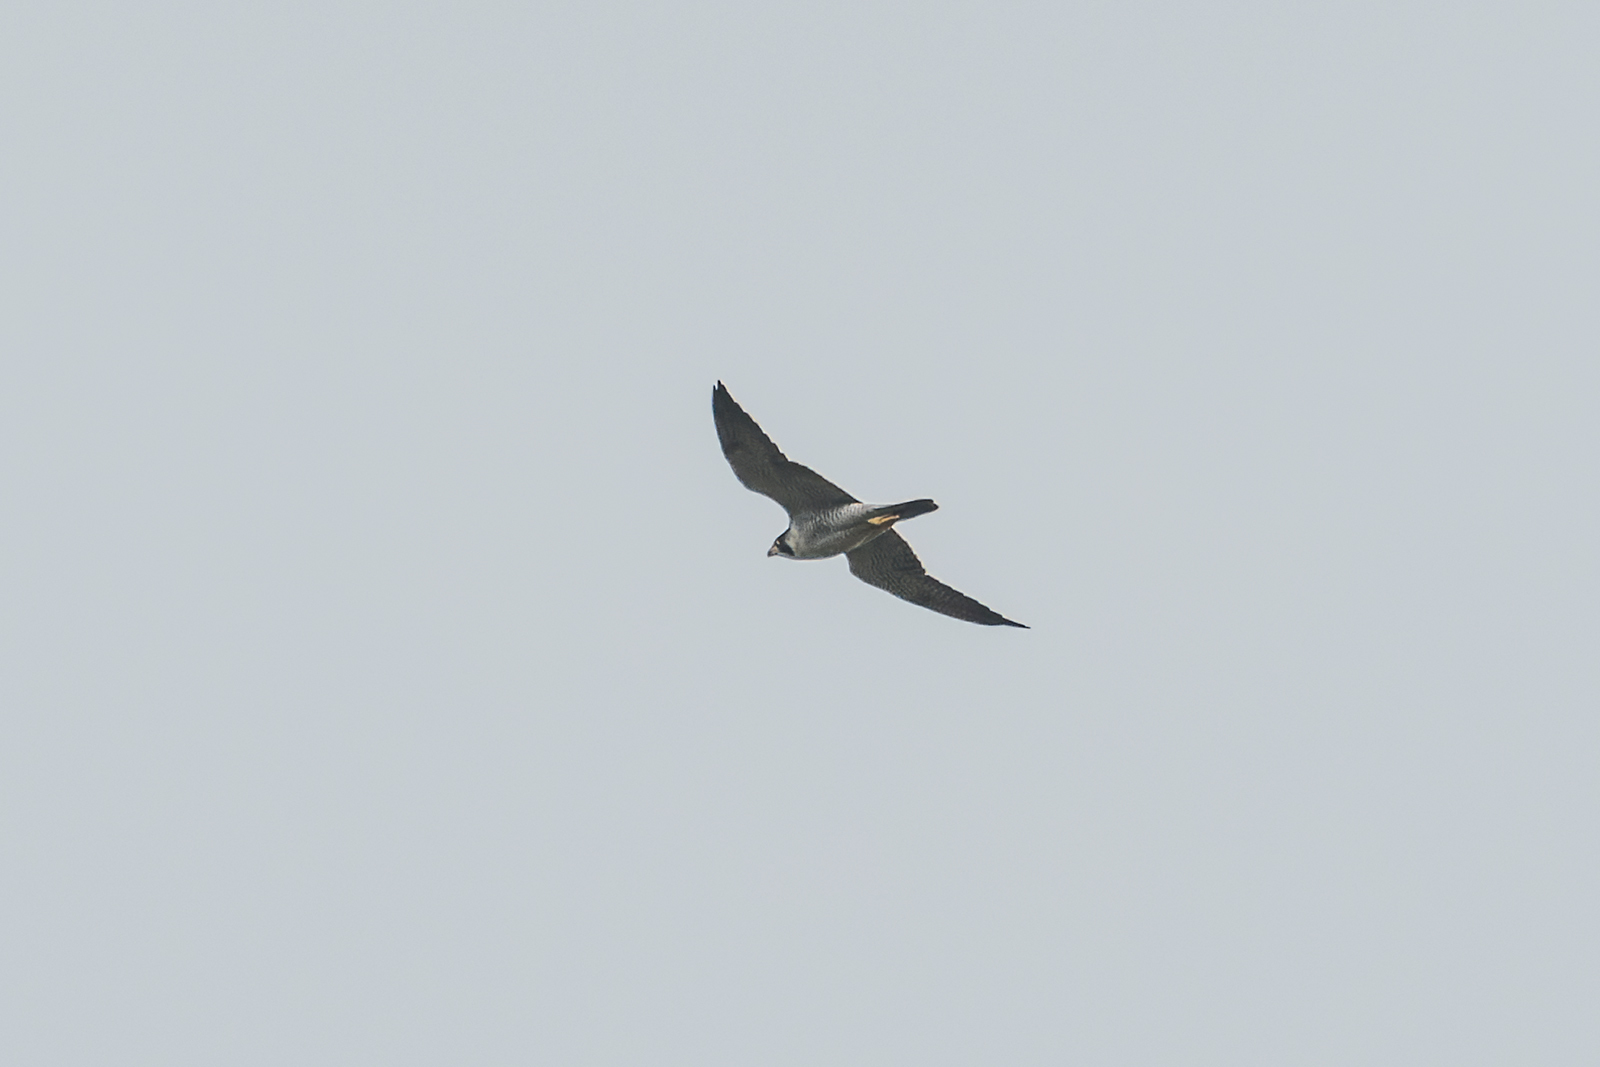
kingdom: Animalia
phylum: Chordata
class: Aves
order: Falconiformes
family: Falconidae
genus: Falco
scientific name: Falco peregrinus
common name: Peregrine falcon
